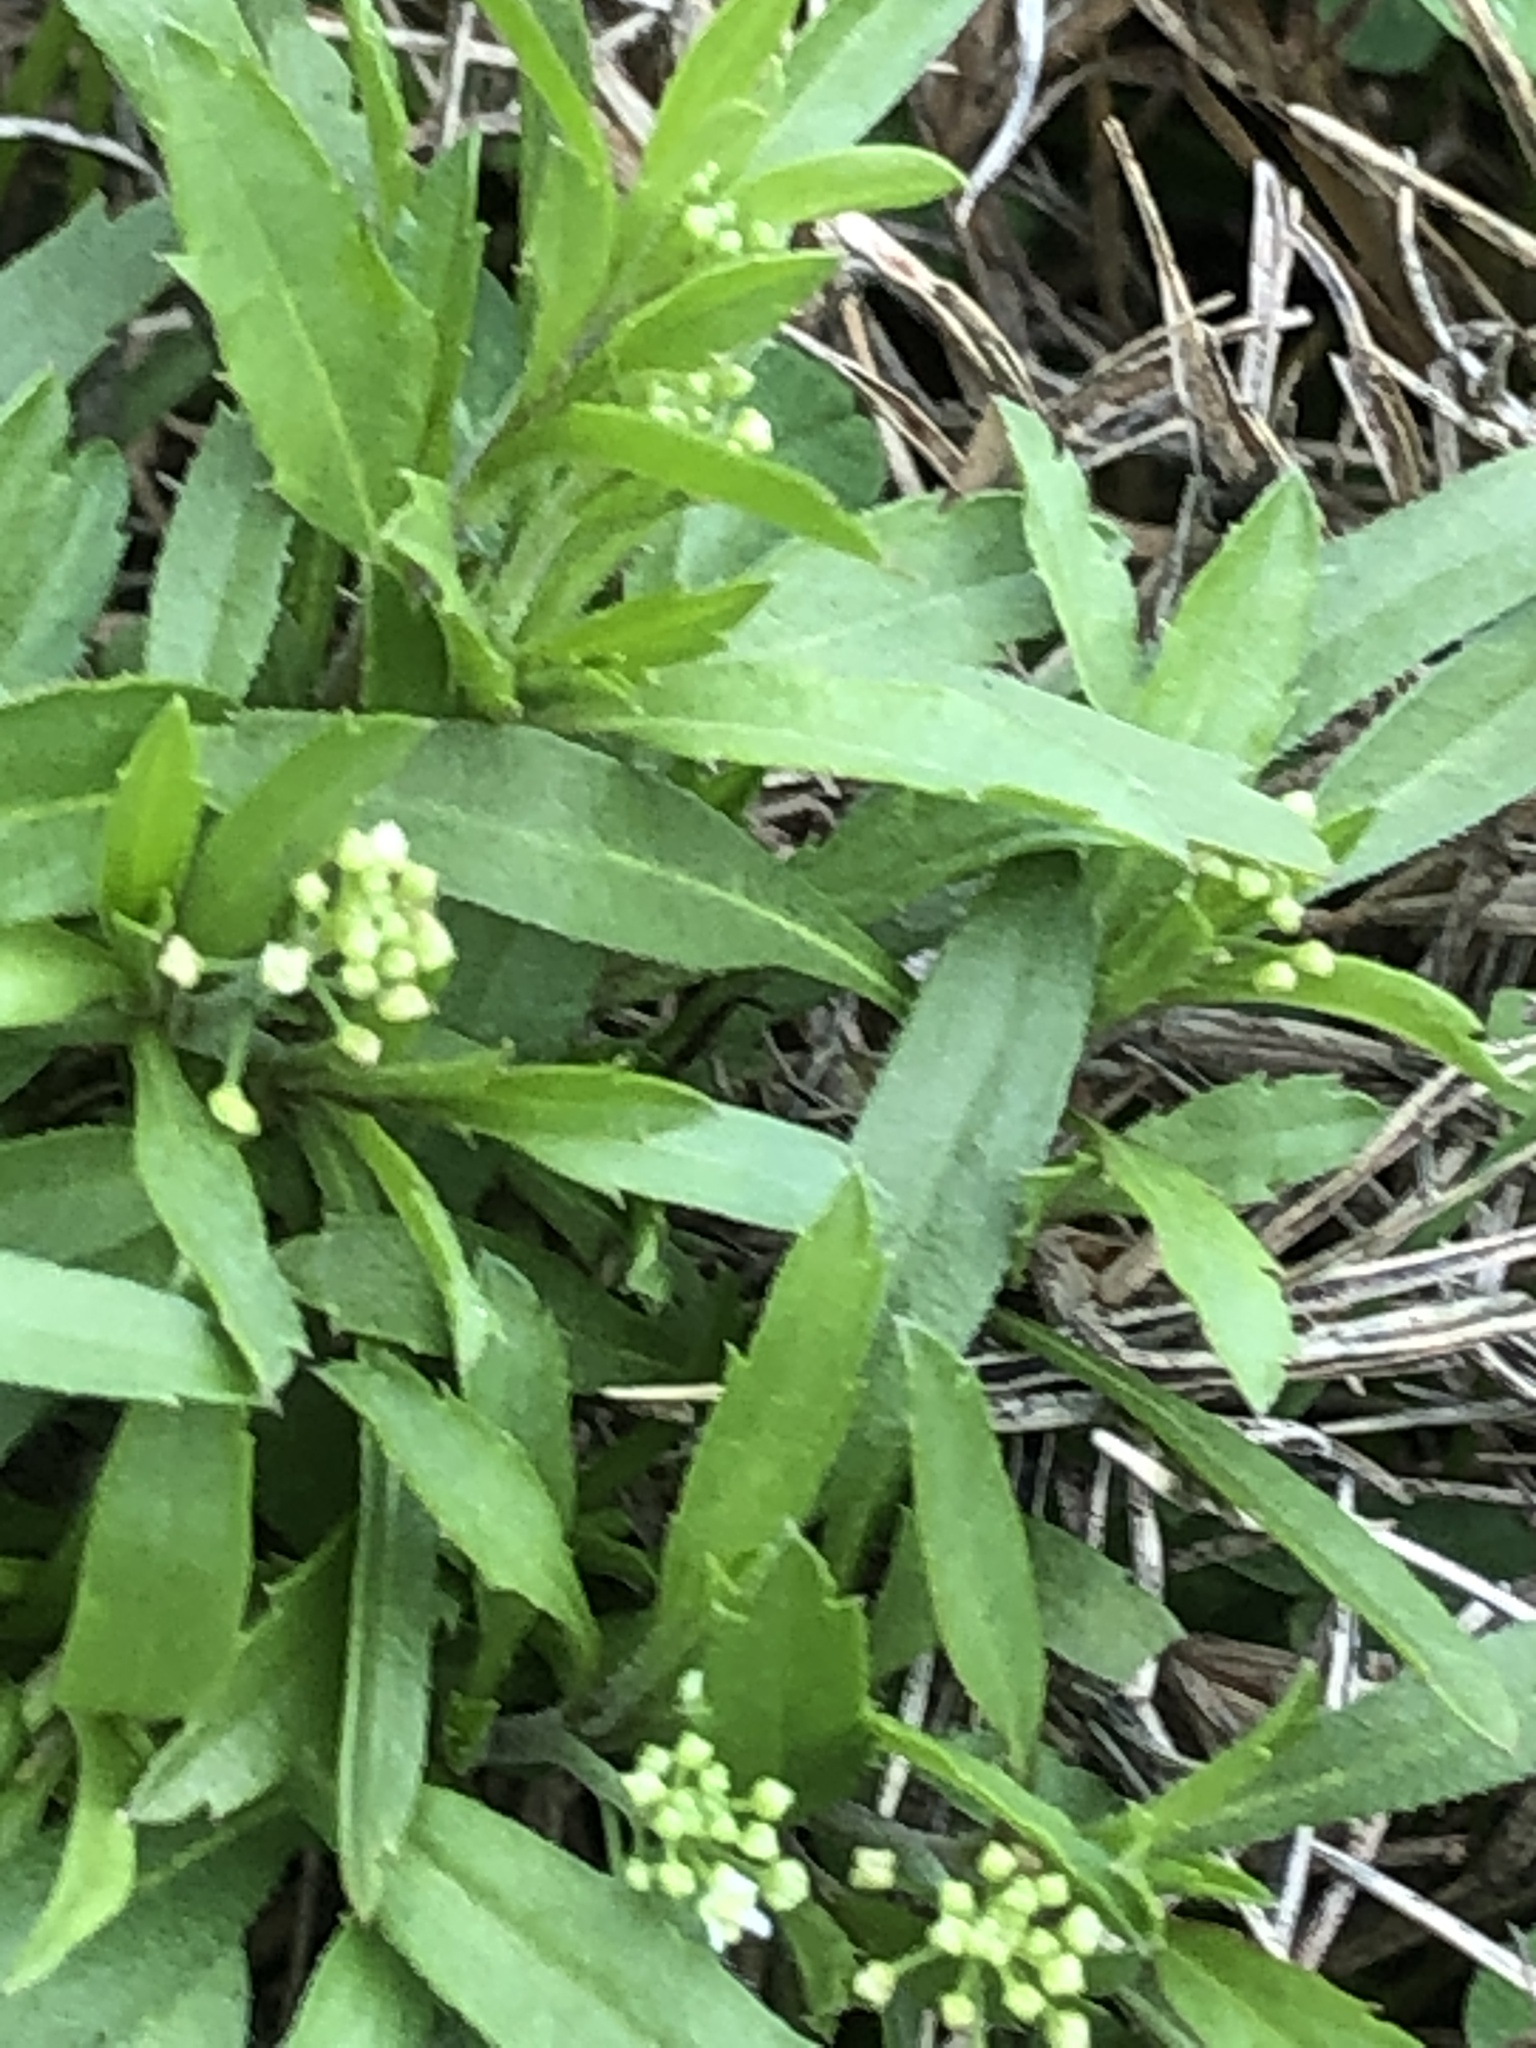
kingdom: Plantae
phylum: Tracheophyta
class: Magnoliopsida
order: Brassicales
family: Brassicaceae
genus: Lepidium
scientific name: Lepidium virginicum
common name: Least pepperwort
